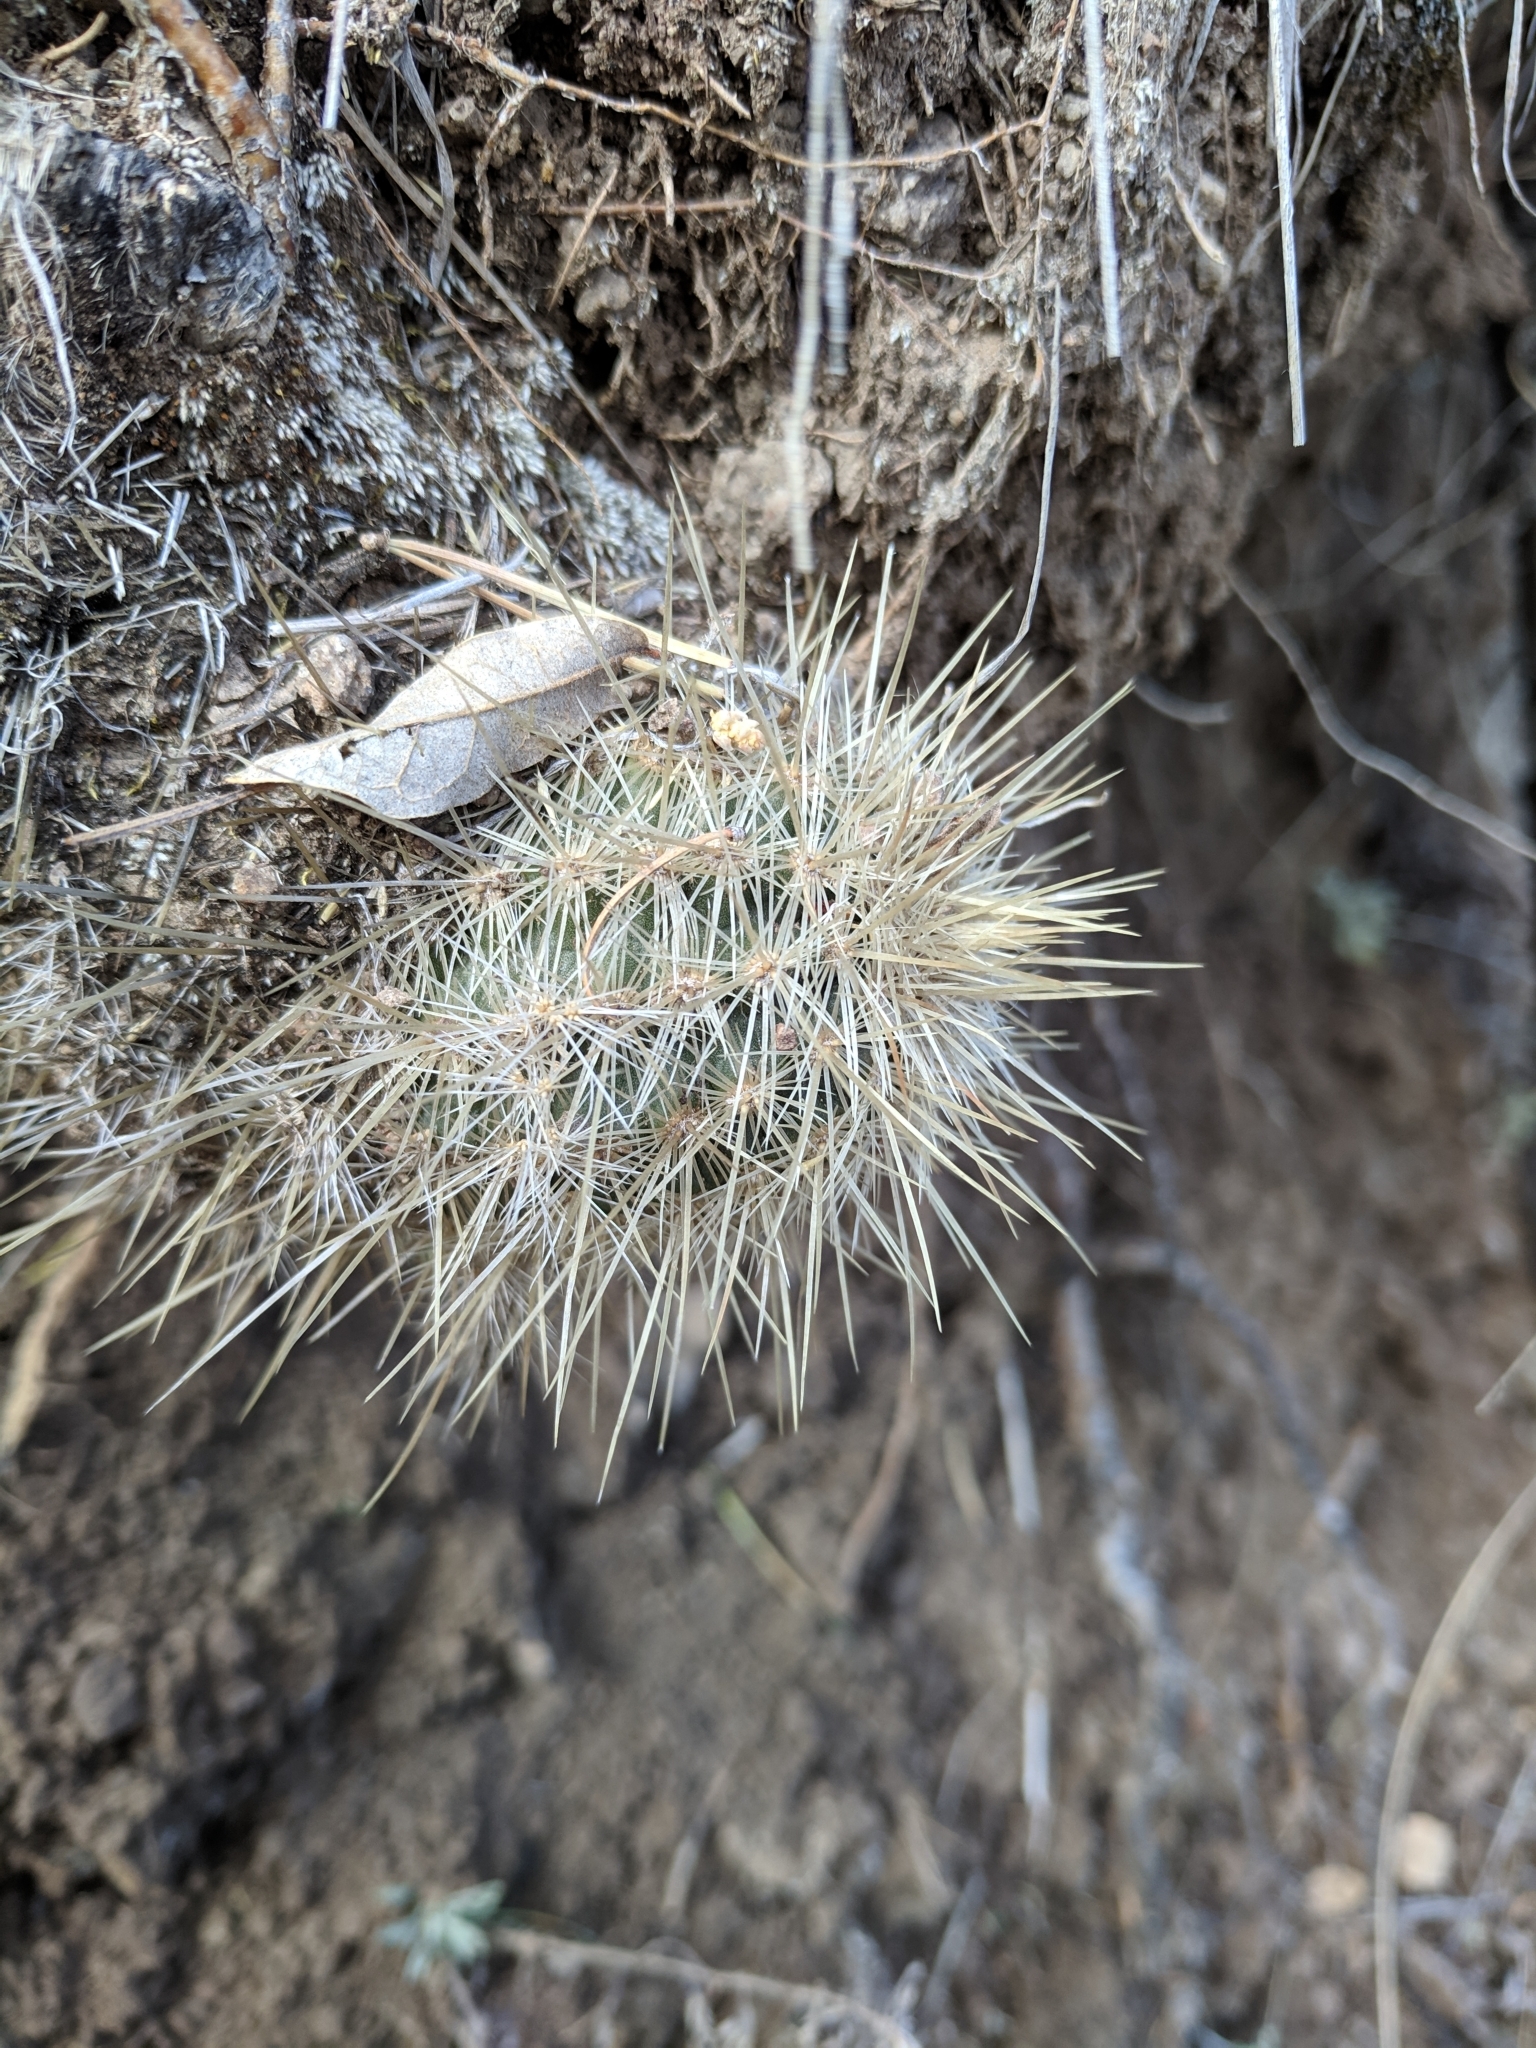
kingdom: Plantae
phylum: Tracheophyta
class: Magnoliopsida
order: Caryophyllales
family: Cactaceae
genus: Echinocereus
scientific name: Echinocereus
